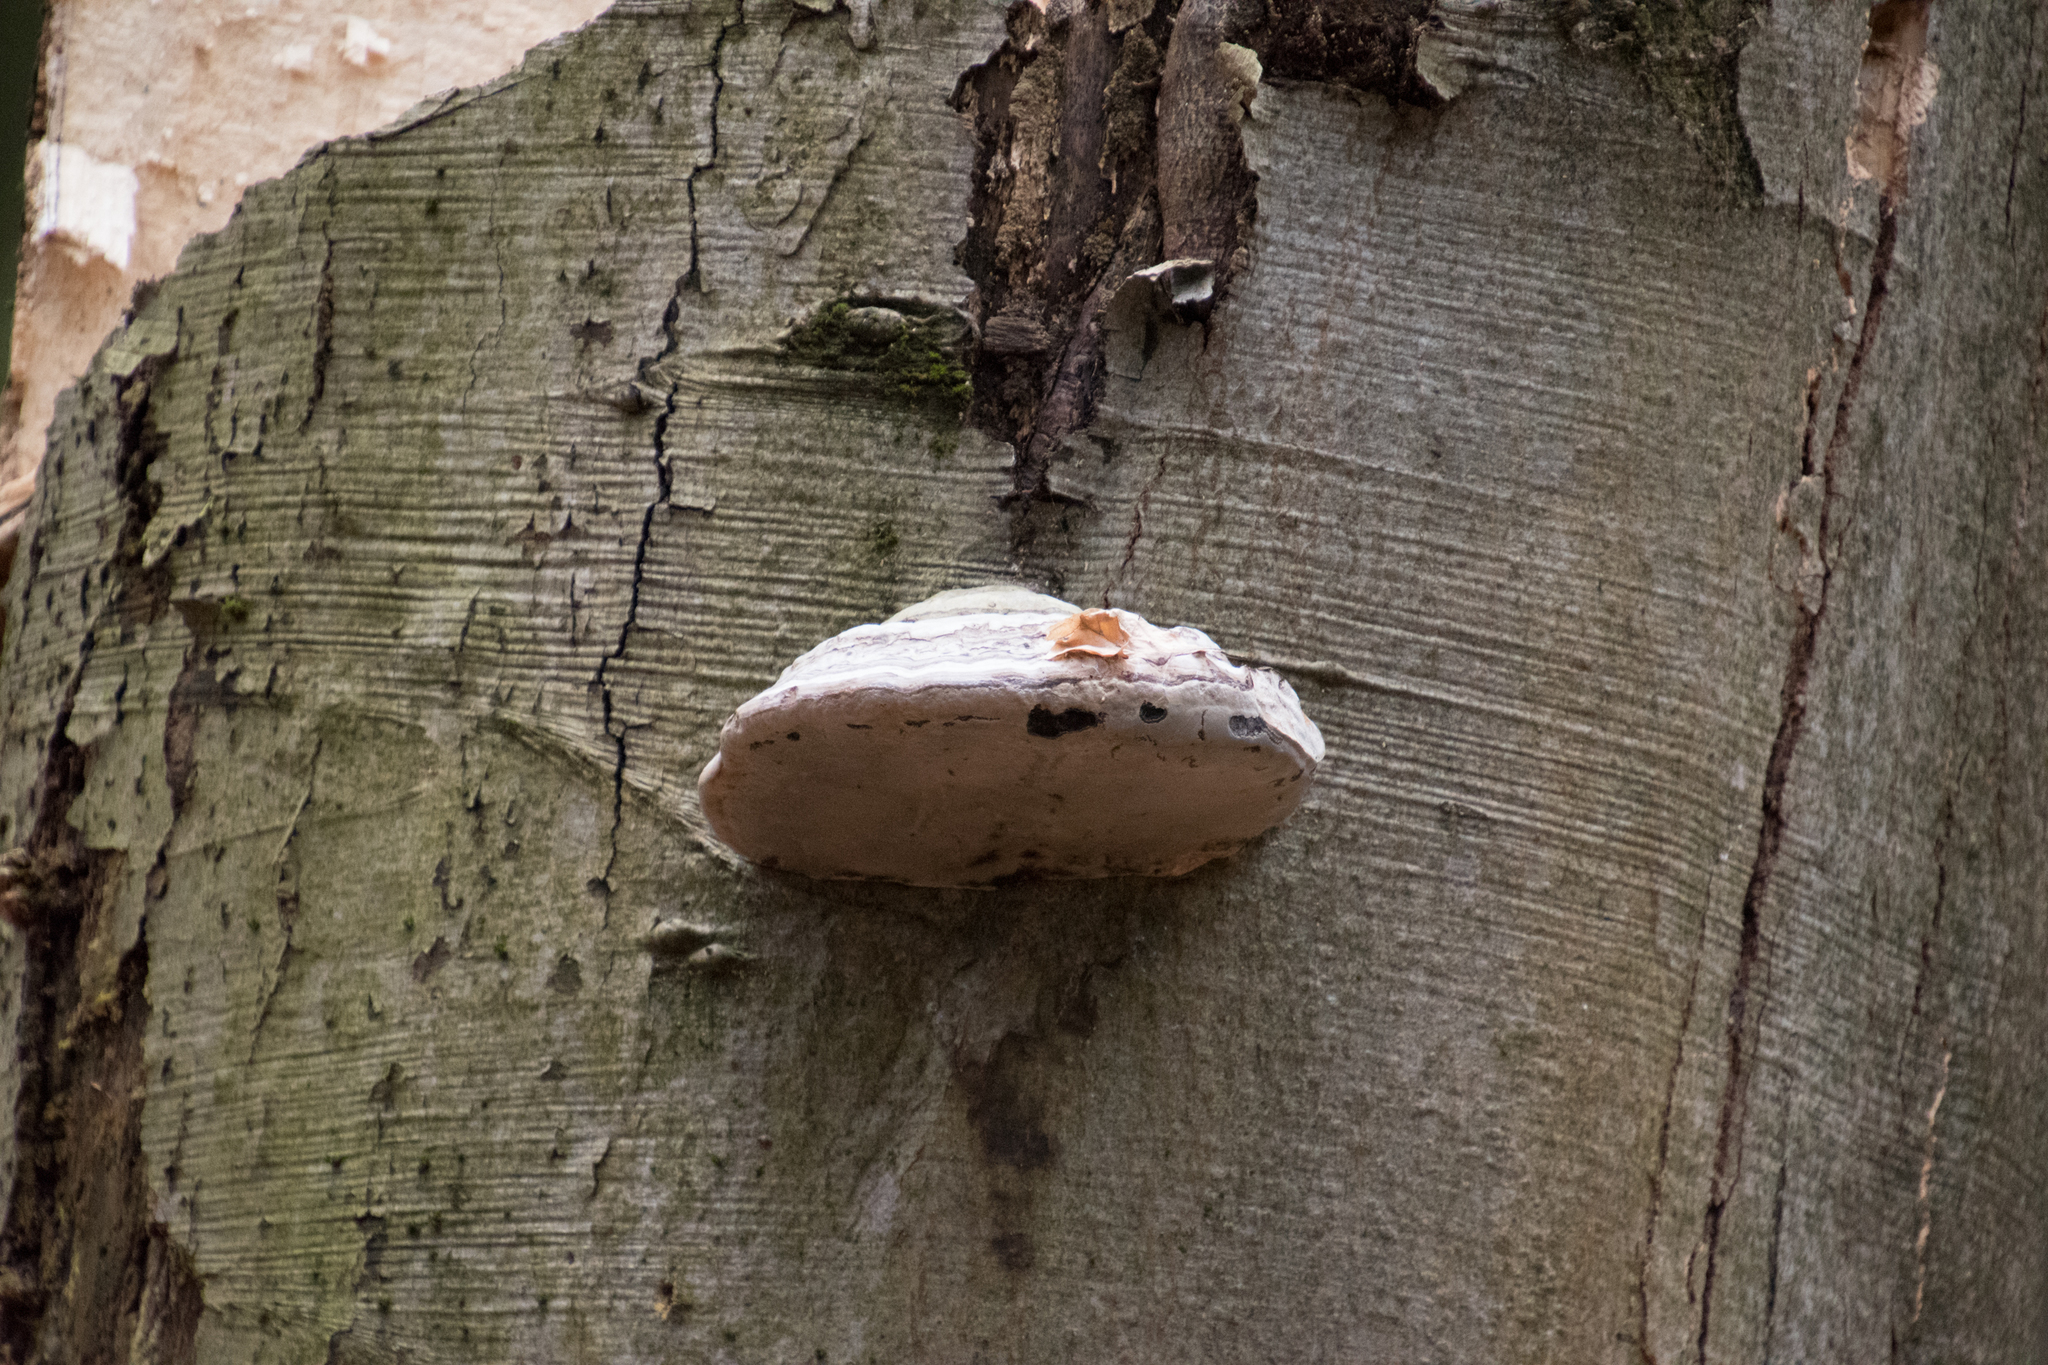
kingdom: Fungi
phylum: Basidiomycota
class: Agaricomycetes
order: Polyporales
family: Polyporaceae
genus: Fomes
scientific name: Fomes fomentarius
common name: Hoof fungus
